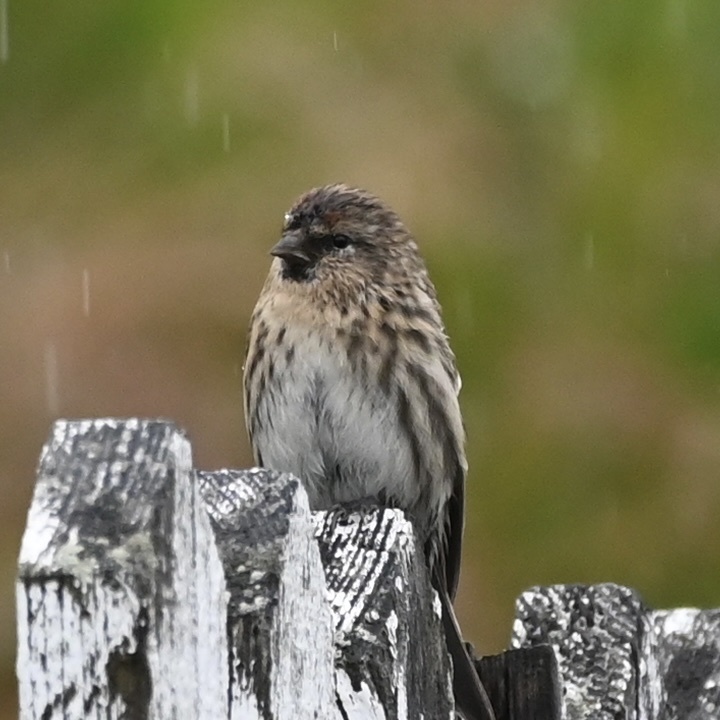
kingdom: Animalia
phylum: Chordata
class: Aves
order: Passeriformes
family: Fringillidae
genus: Acanthis
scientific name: Acanthis flammea
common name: Common redpoll
